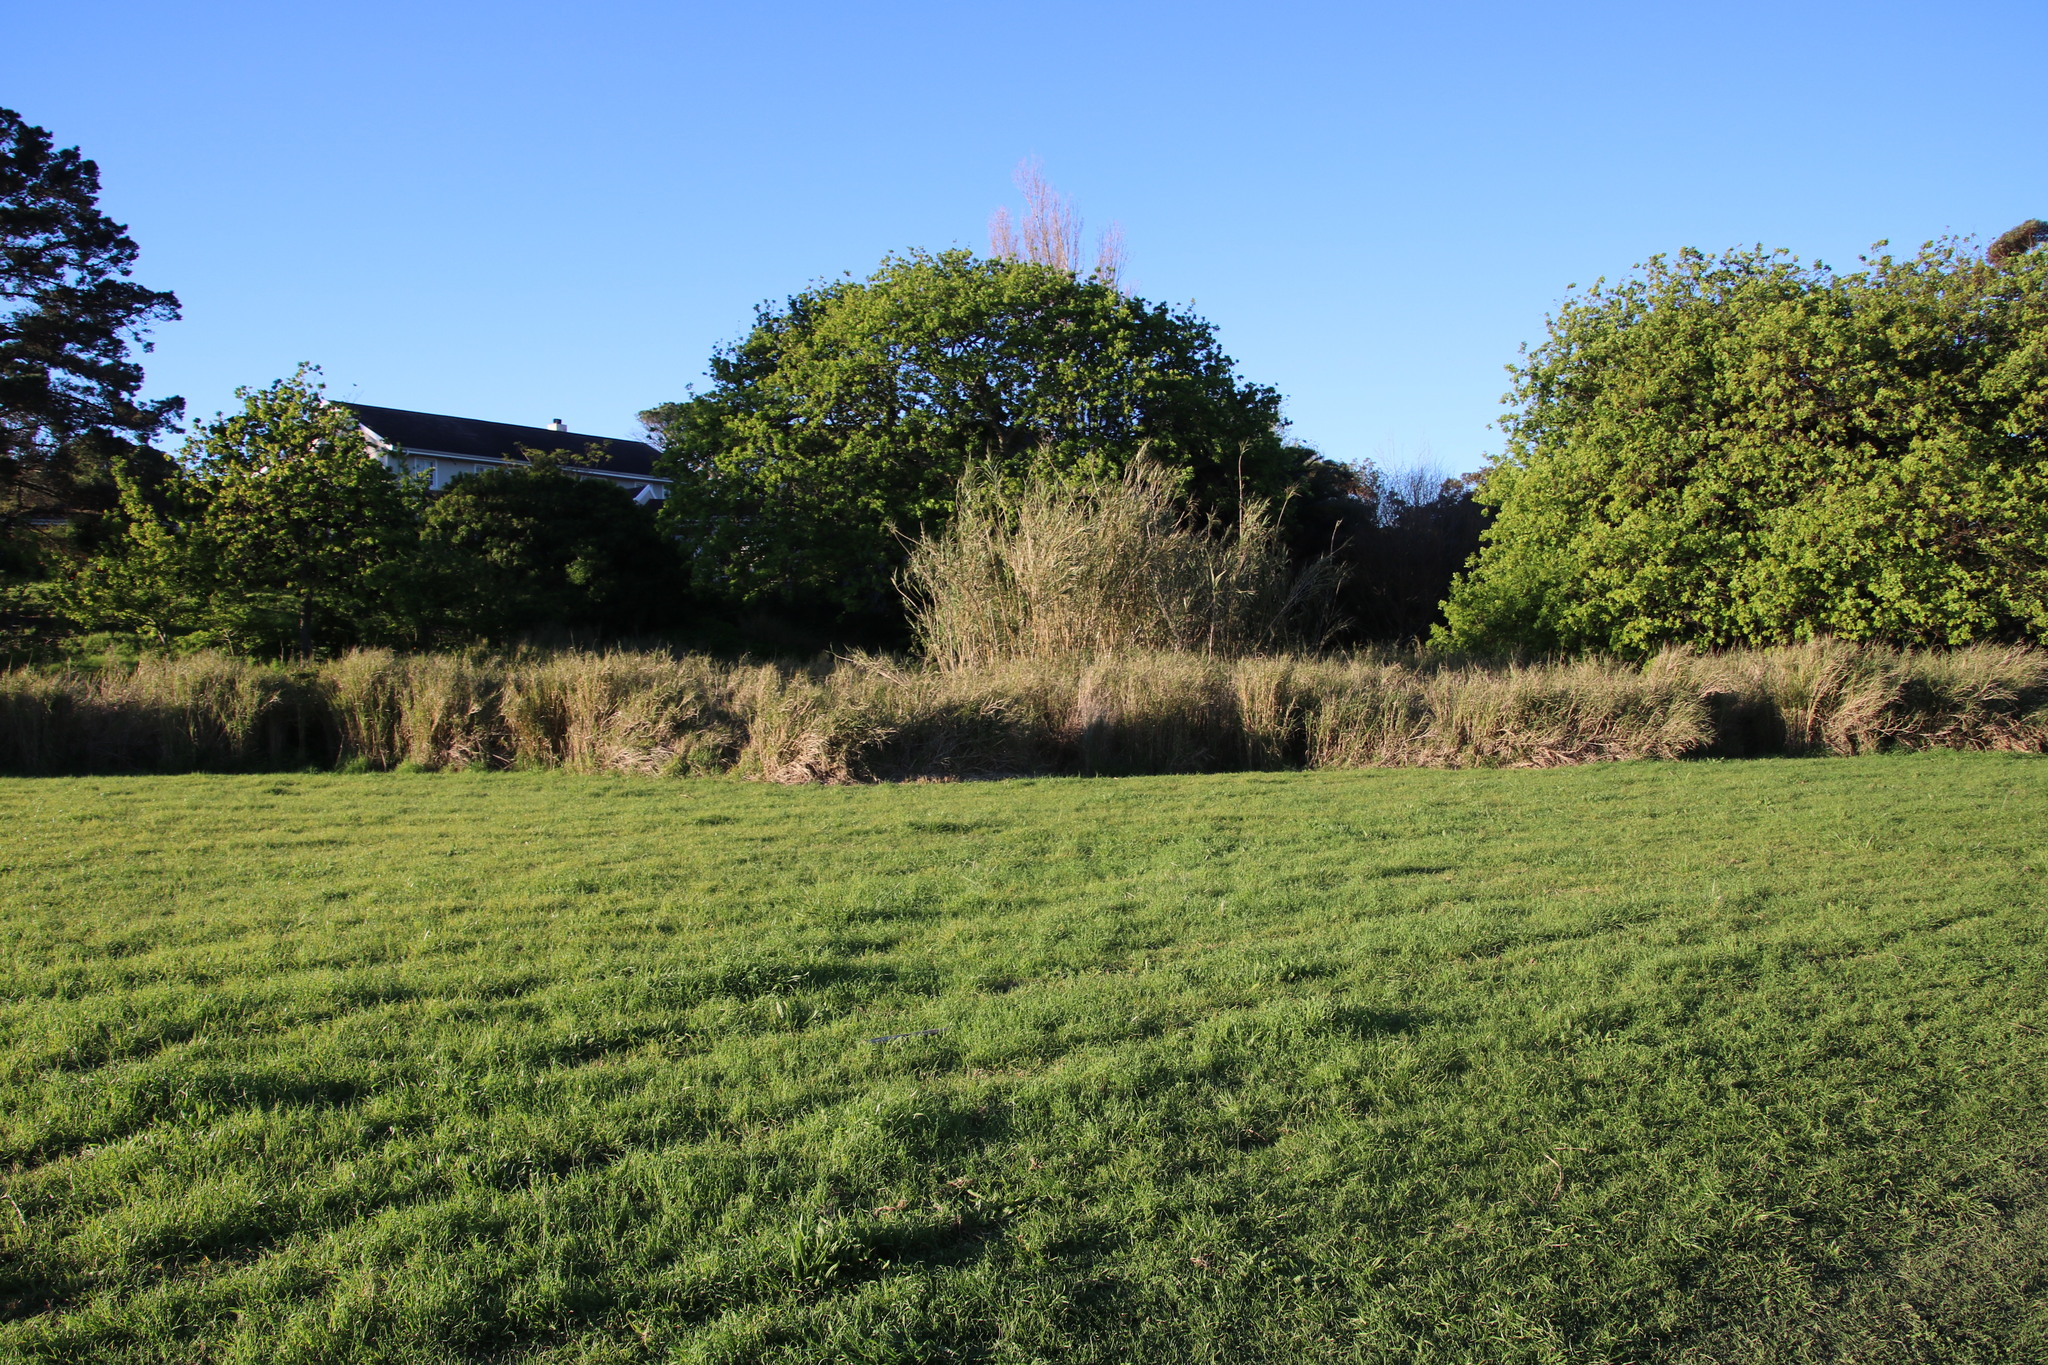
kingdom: Plantae
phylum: Tracheophyta
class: Liliopsida
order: Poales
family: Poaceae
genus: Cenchrus
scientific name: Cenchrus clandestinus
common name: Kikuyugrass
